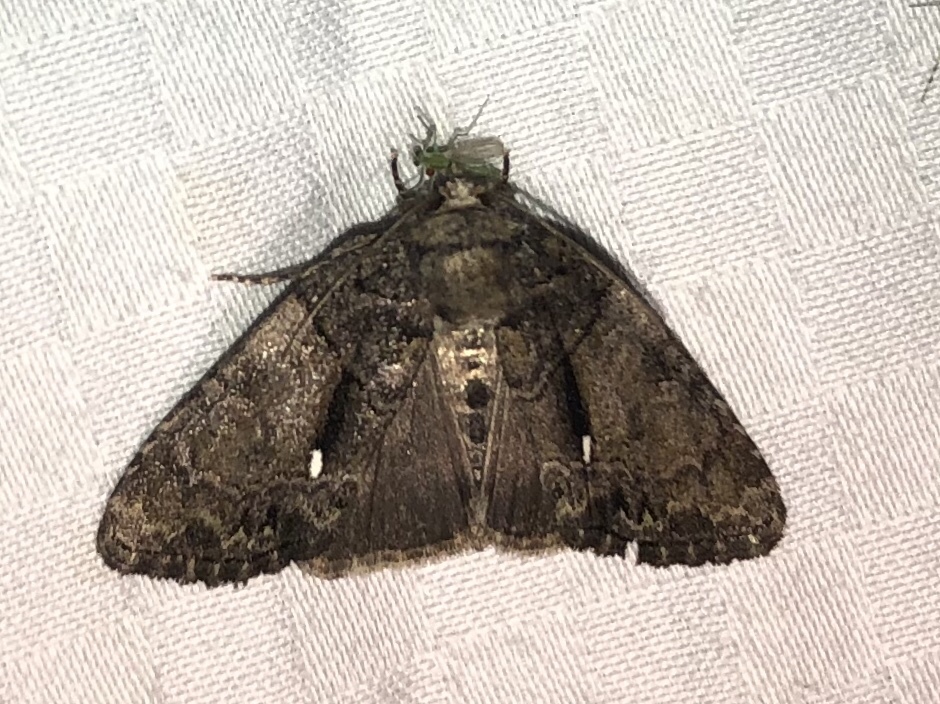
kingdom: Animalia
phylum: Arthropoda
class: Insecta
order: Lepidoptera
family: Noctuidae
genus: Chytonix
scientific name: Chytonix palliatricula
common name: Cloaked marvel
